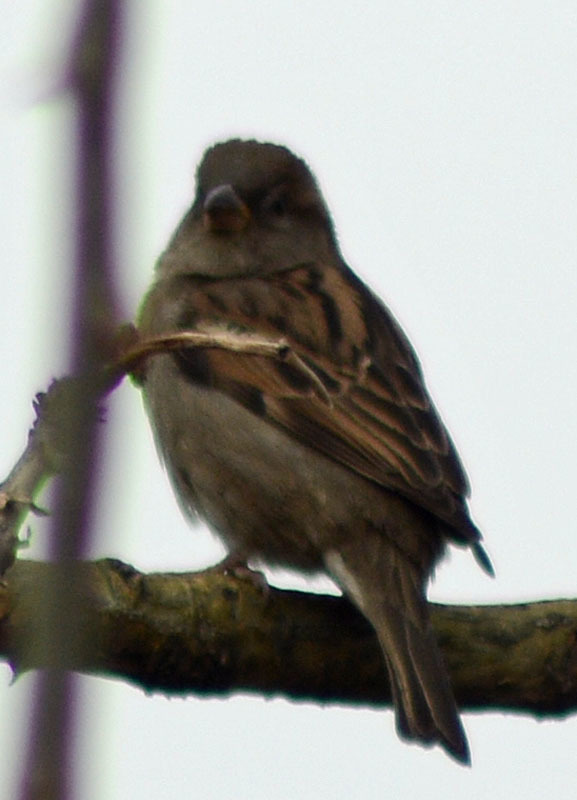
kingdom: Animalia
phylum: Chordata
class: Aves
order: Passeriformes
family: Passeridae
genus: Passer
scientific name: Passer domesticus
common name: House sparrow
